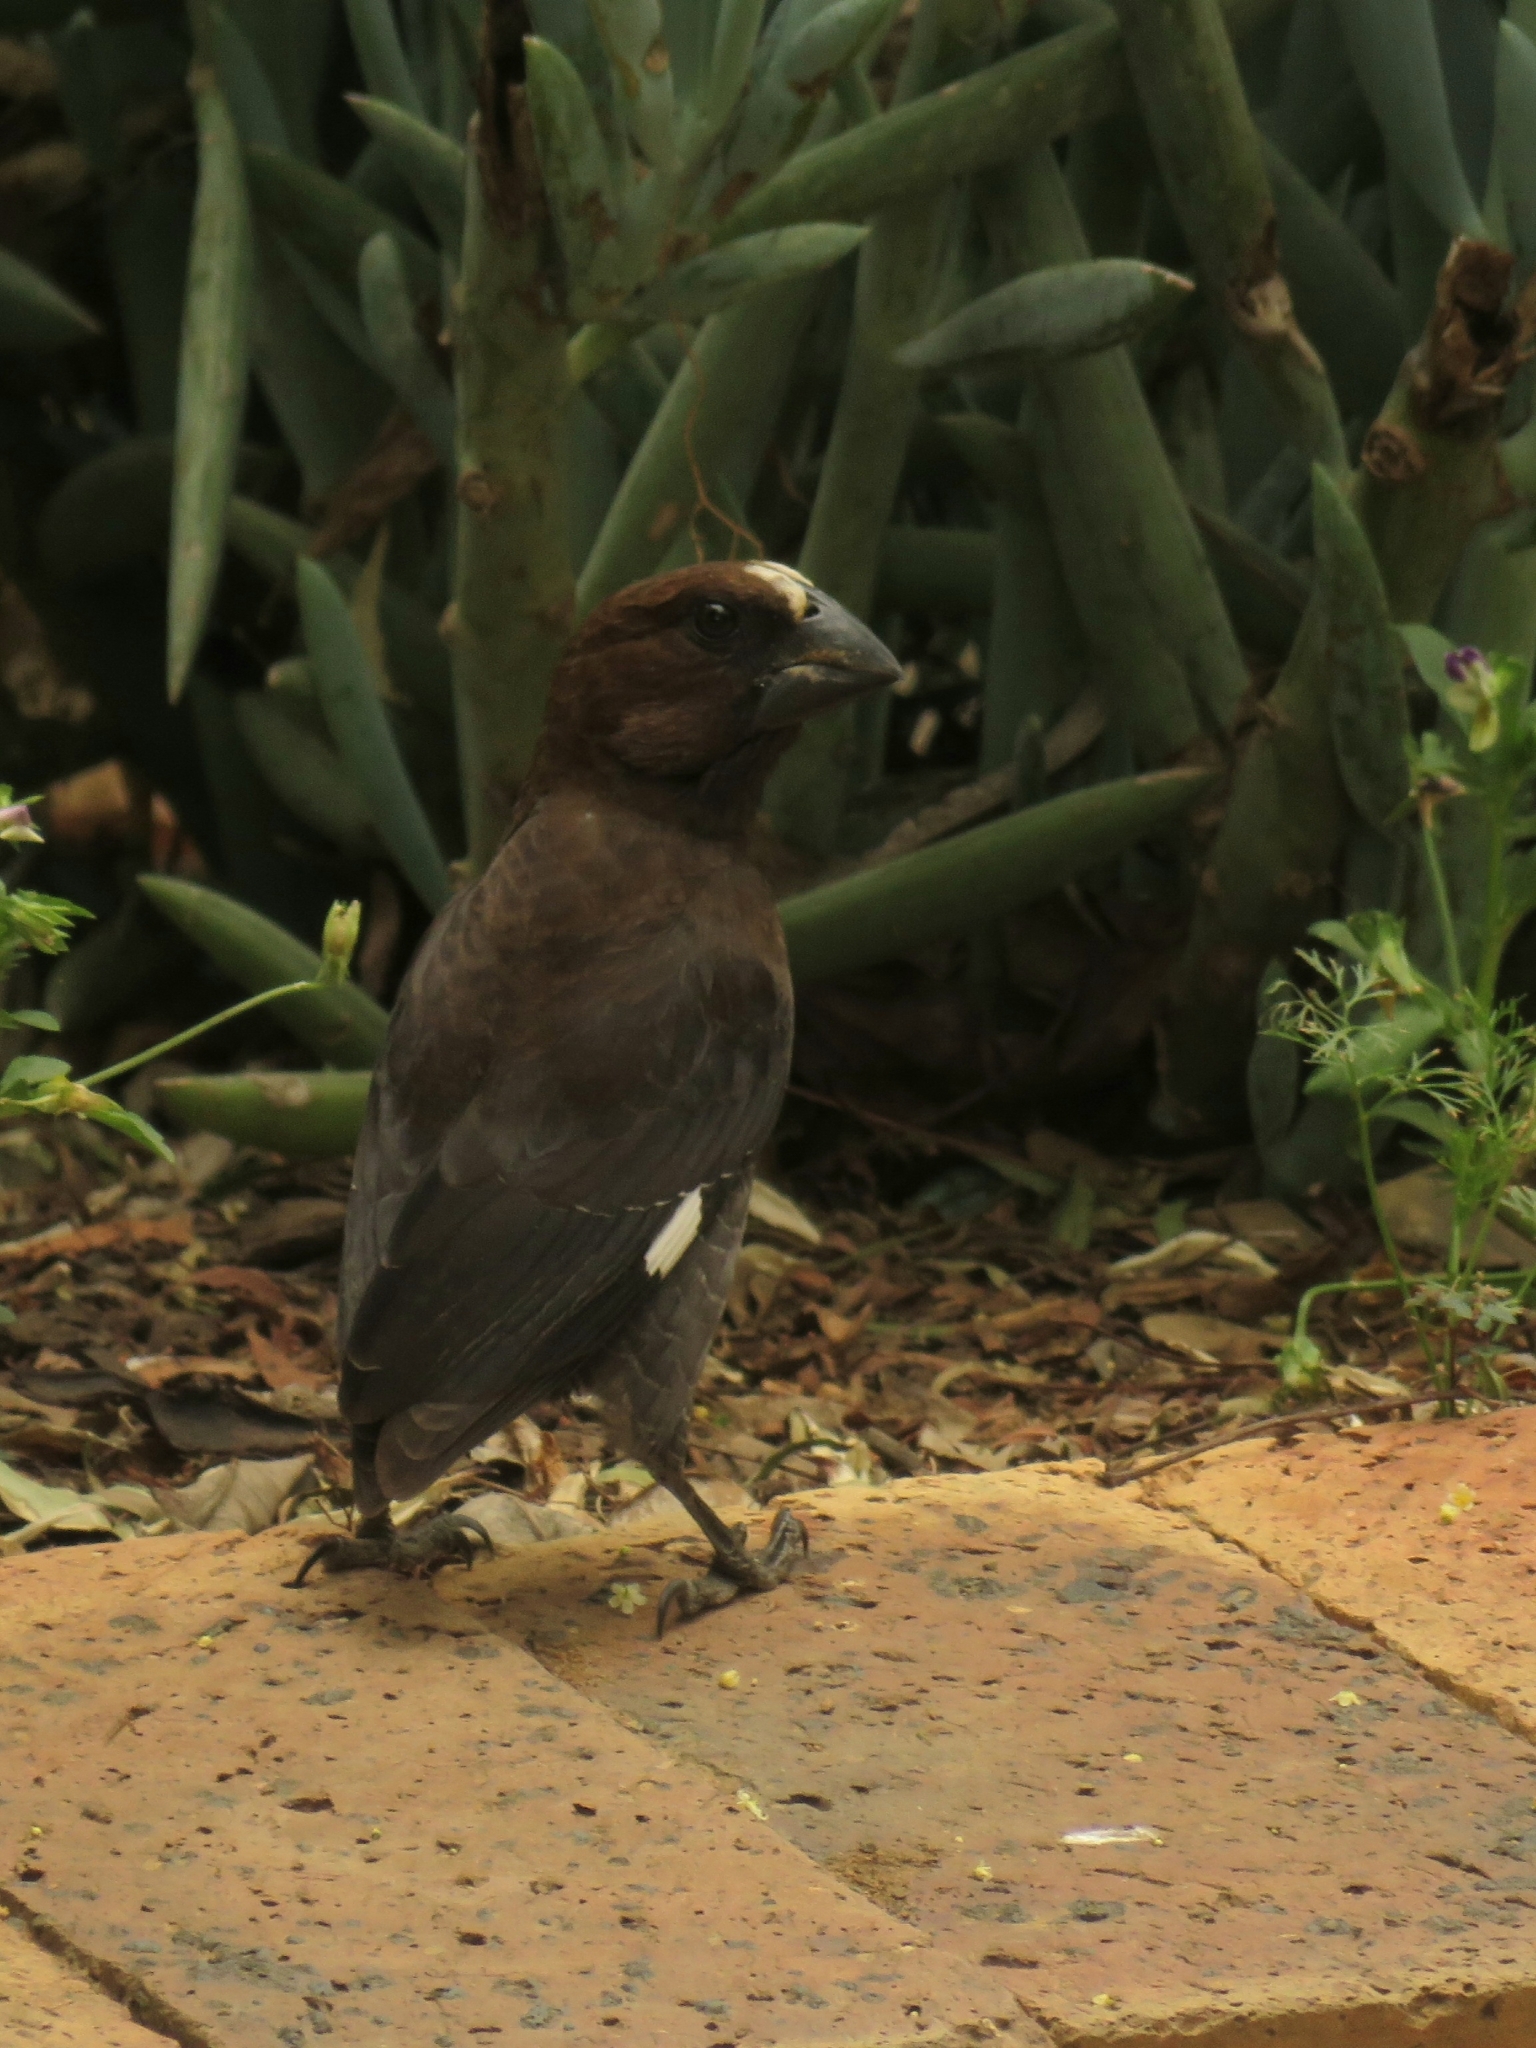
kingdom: Animalia
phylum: Chordata
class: Aves
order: Passeriformes
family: Ploceidae
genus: Amblyospiza
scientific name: Amblyospiza albifrons
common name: Thick-billed weaver
